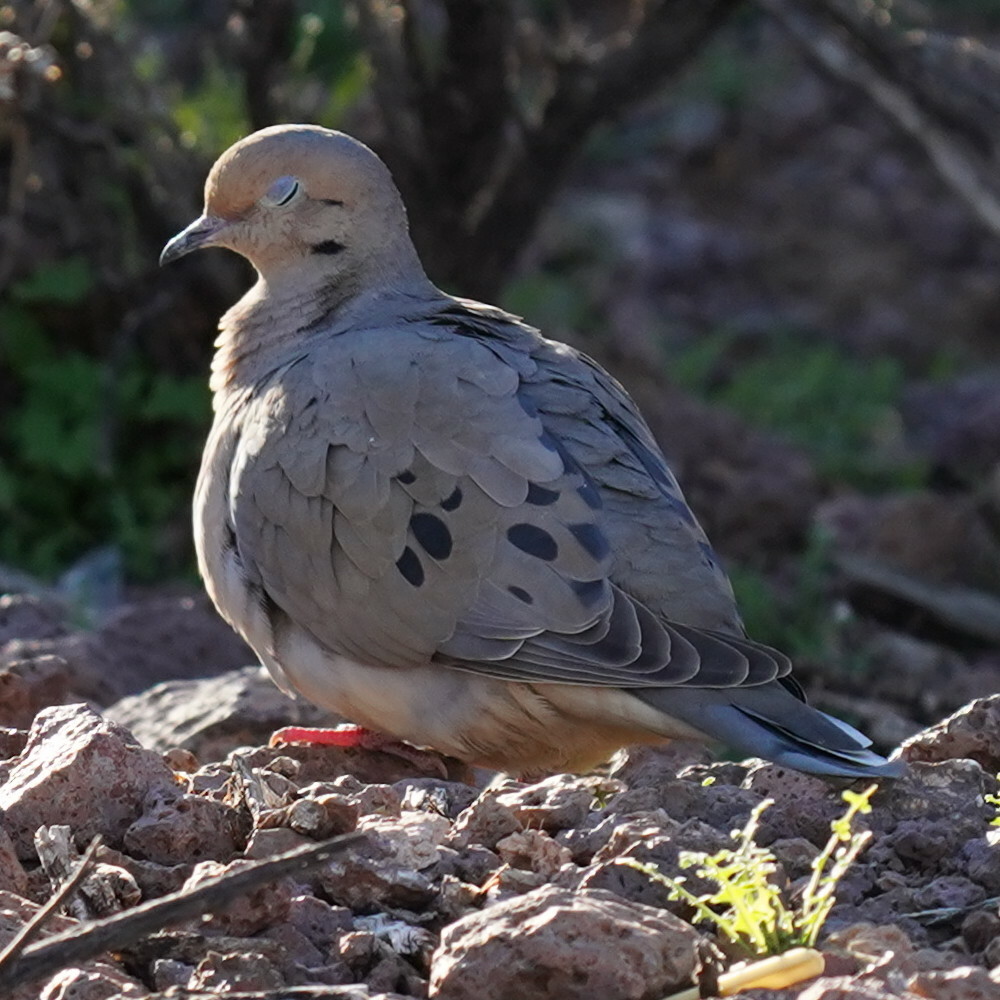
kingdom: Animalia
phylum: Chordata
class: Aves
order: Columbiformes
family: Columbidae
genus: Zenaida
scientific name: Zenaida macroura
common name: Mourning dove
